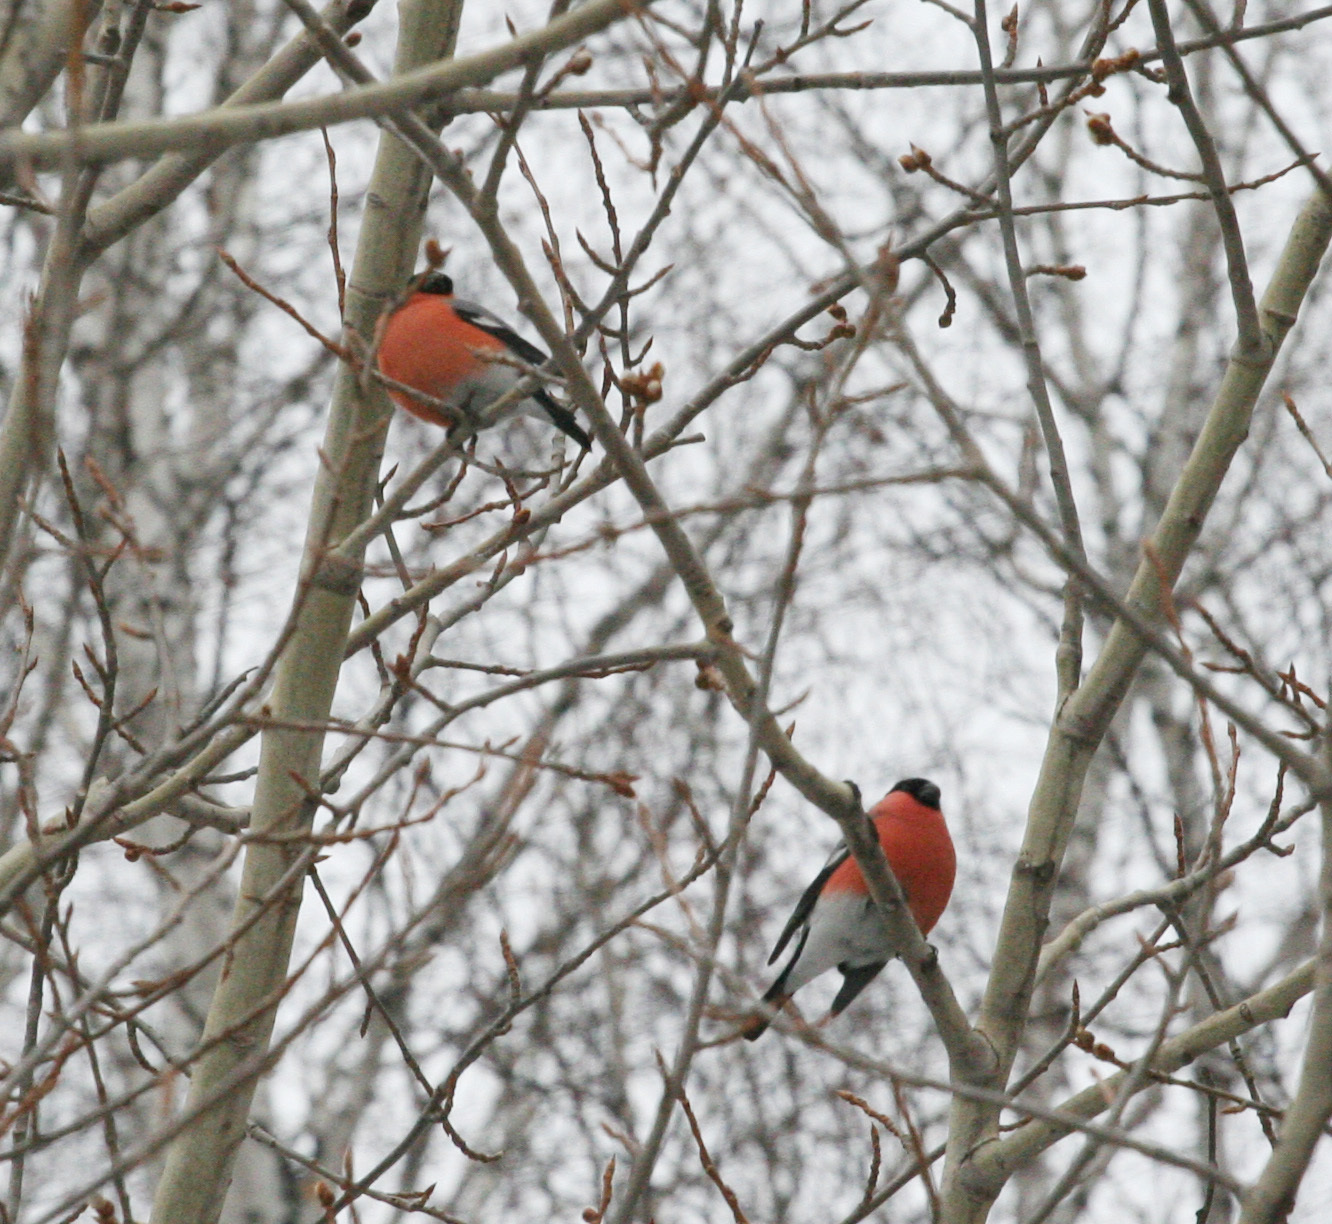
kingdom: Animalia
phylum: Chordata
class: Aves
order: Passeriformes
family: Fringillidae
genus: Pyrrhula
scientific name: Pyrrhula pyrrhula
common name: Eurasian bullfinch
